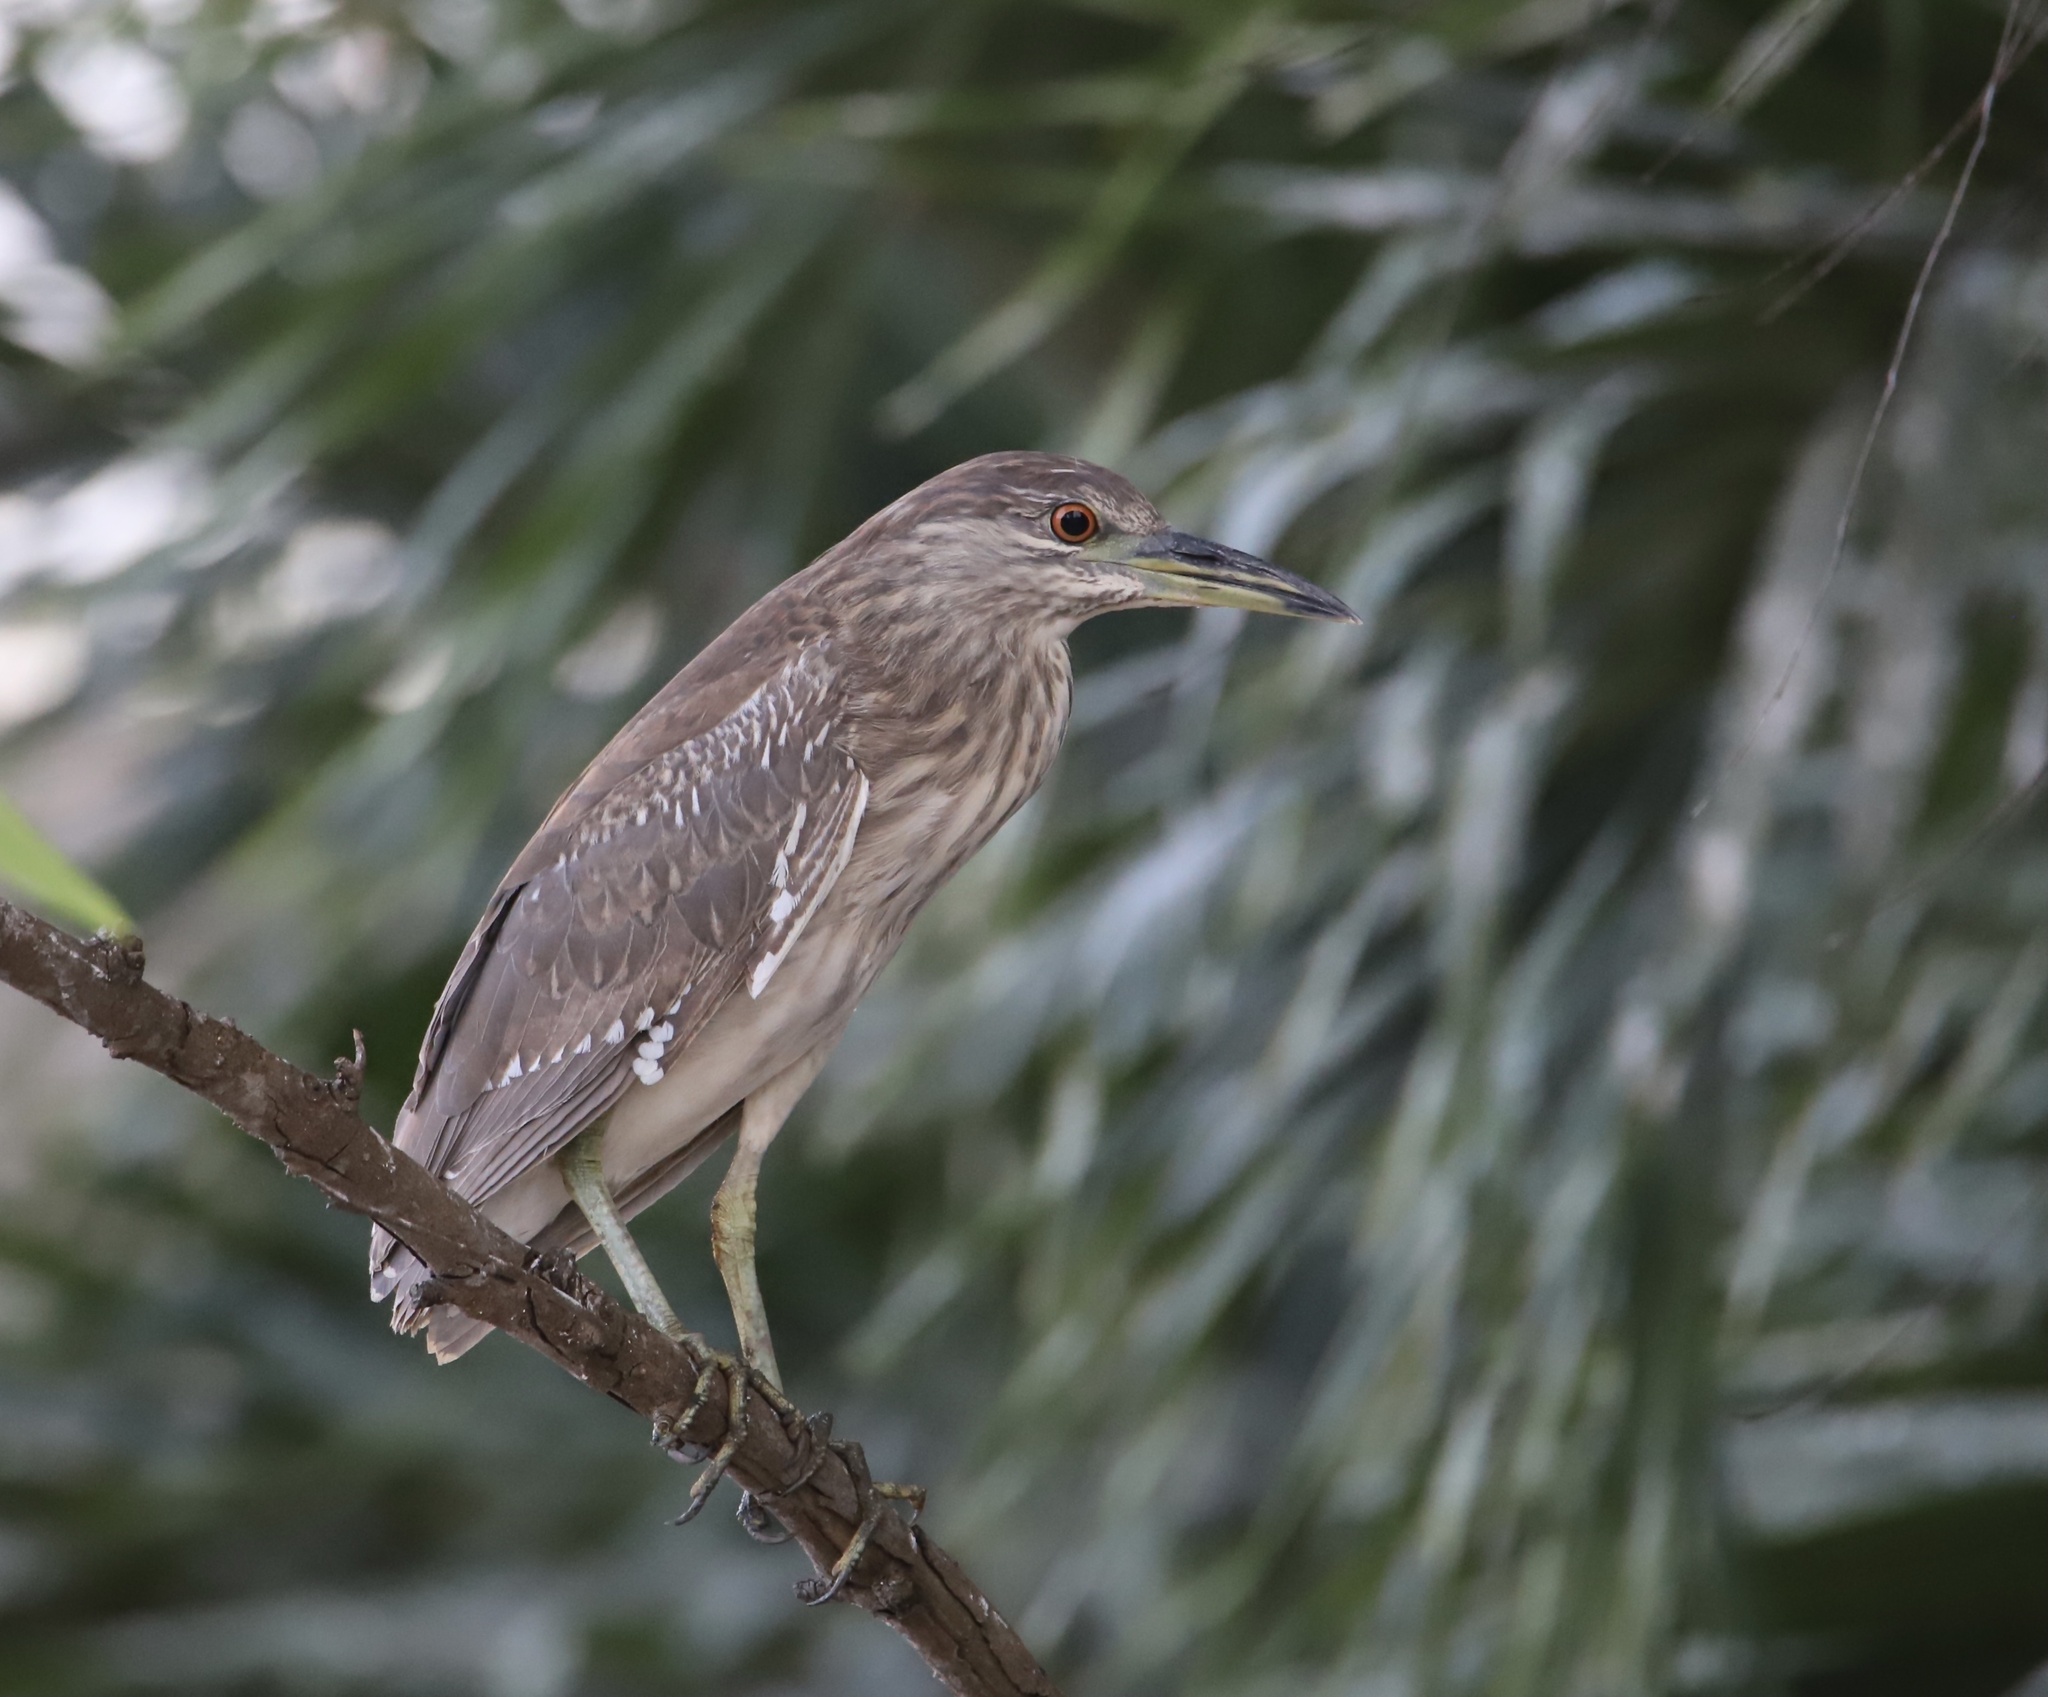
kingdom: Animalia
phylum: Chordata
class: Aves
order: Pelecaniformes
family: Ardeidae
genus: Nycticorax
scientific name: Nycticorax nycticorax
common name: Black-crowned night heron
